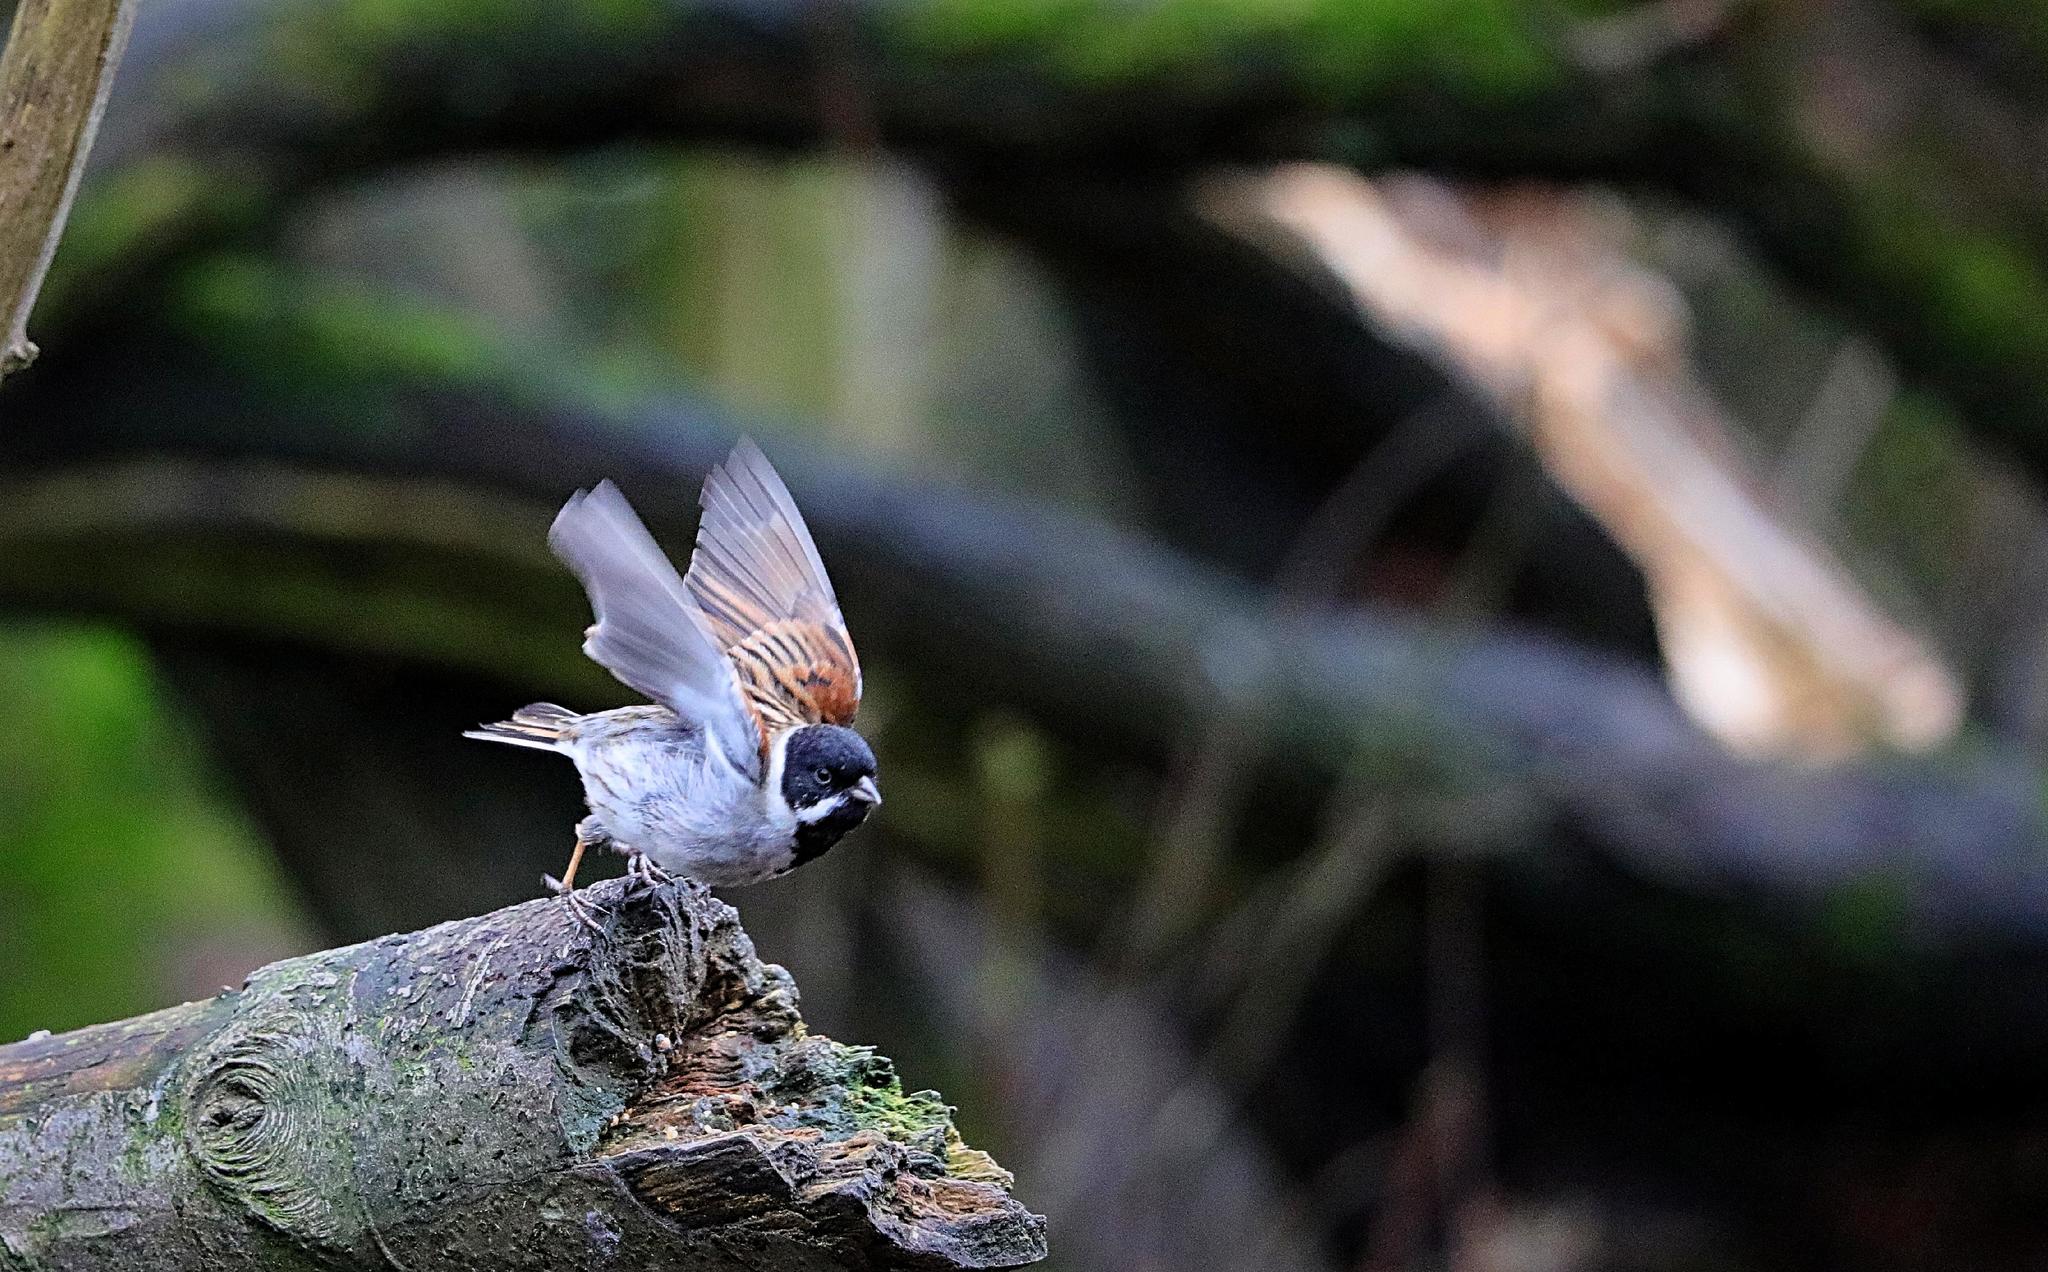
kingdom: Animalia
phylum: Chordata
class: Aves
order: Passeriformes
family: Emberizidae
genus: Emberiza
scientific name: Emberiza schoeniclus
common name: Reed bunting
